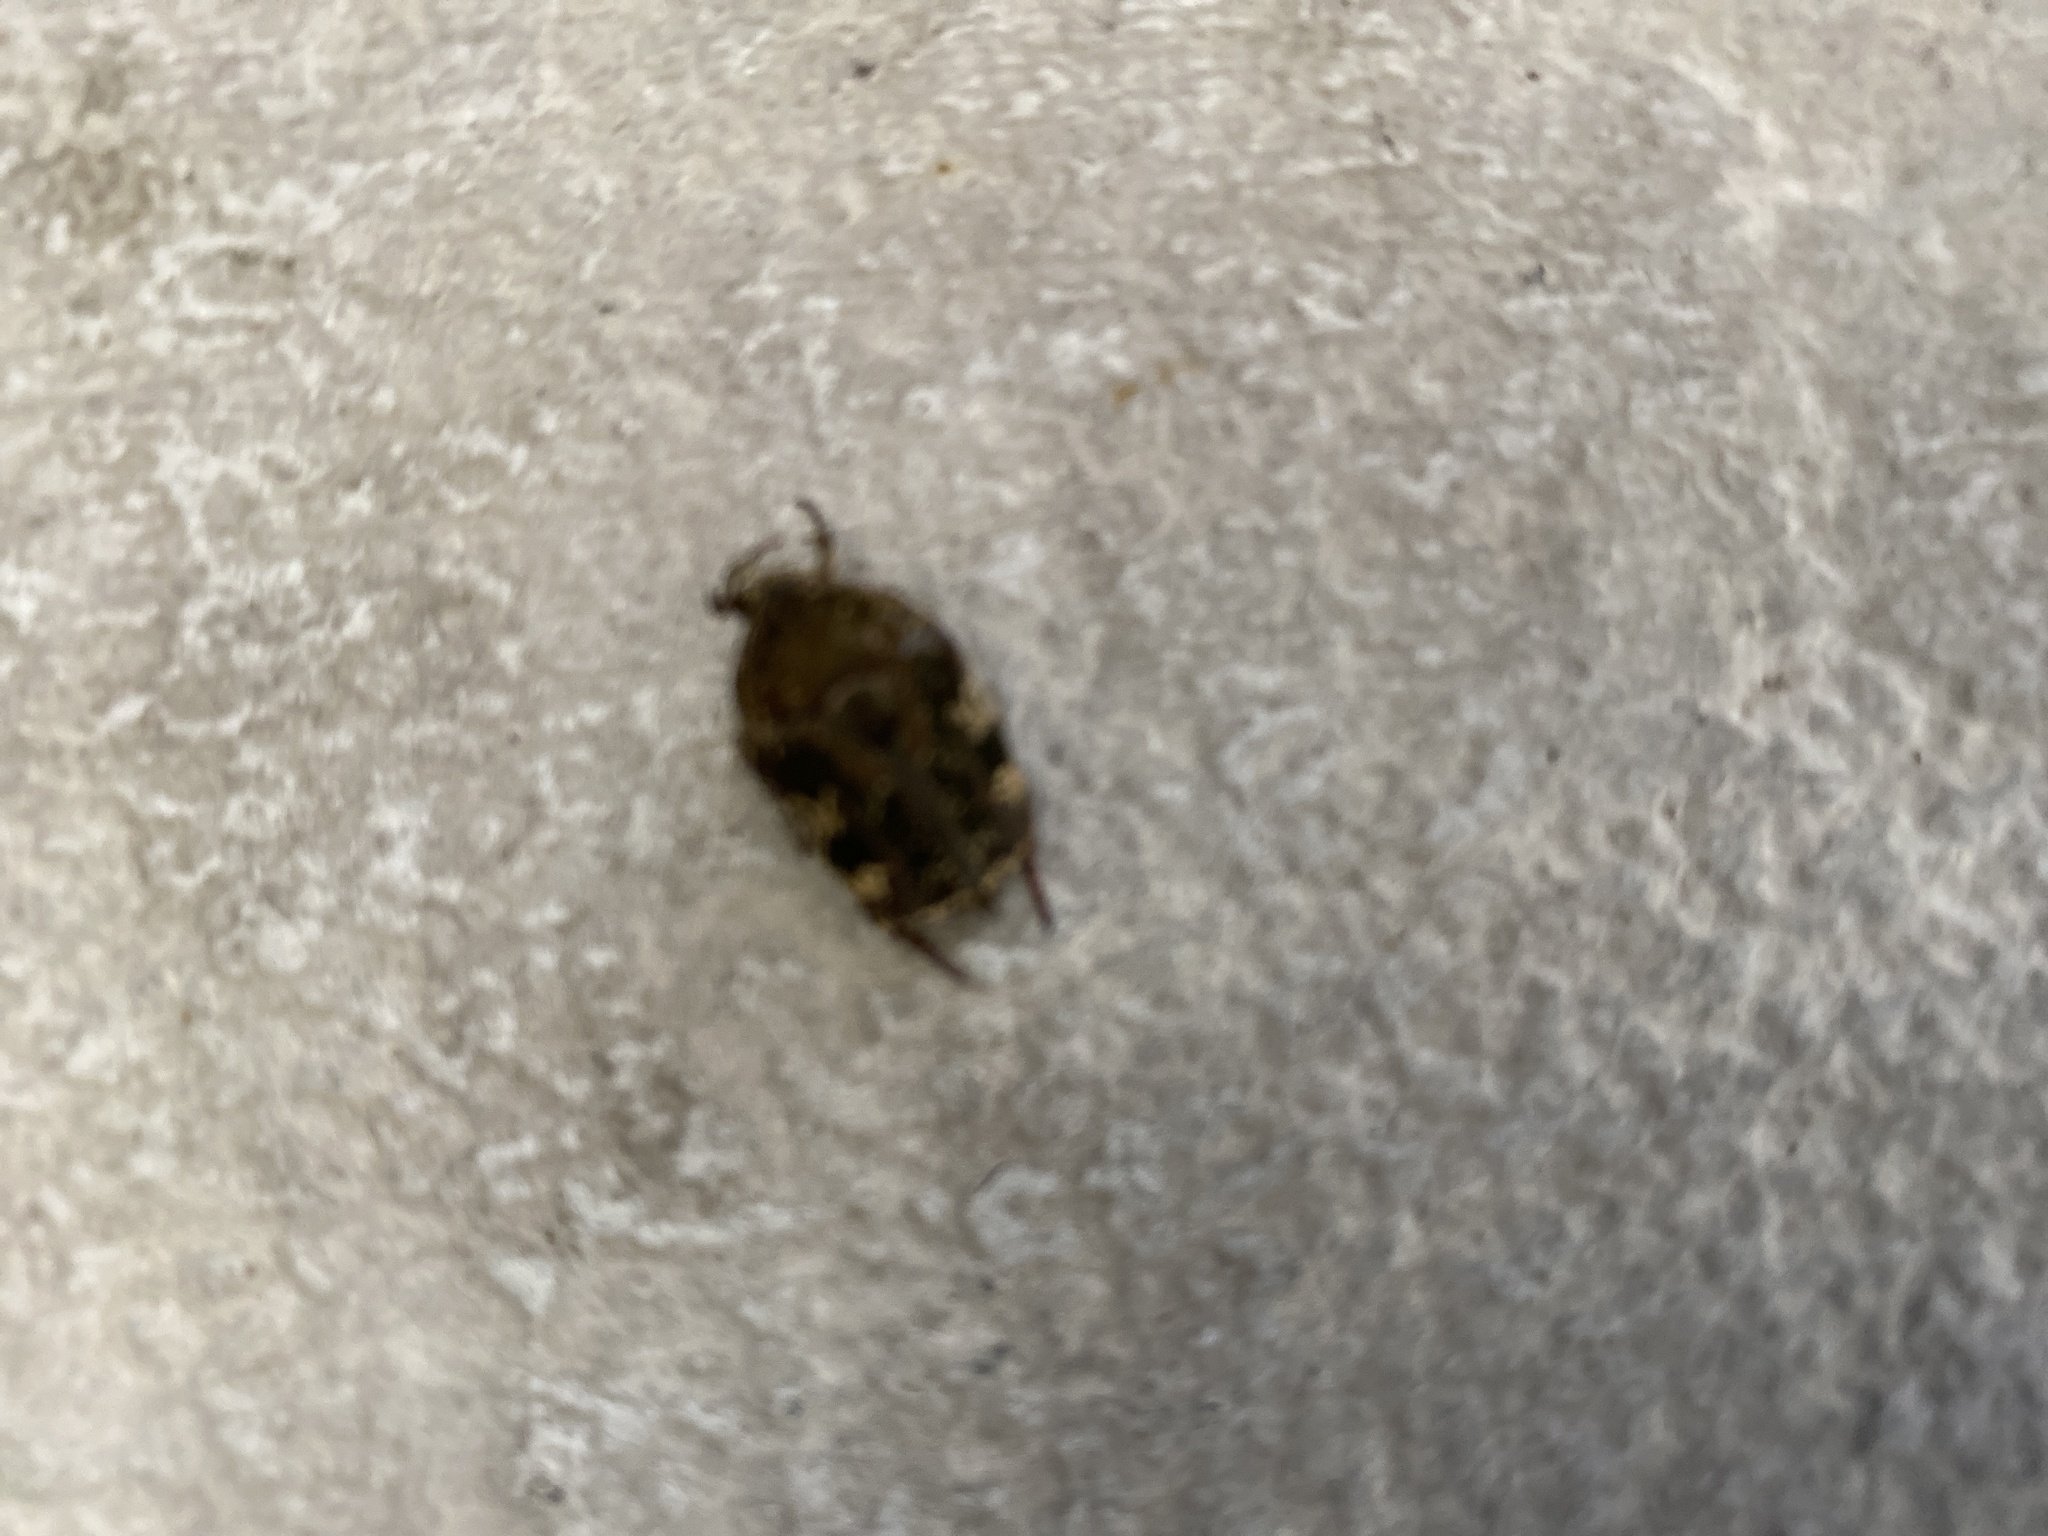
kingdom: Animalia
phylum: Arthropoda
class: Insecta
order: Coleoptera
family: Scarabaeidae
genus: Protaetia
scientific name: Protaetia fusca
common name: Mango flower beetle
